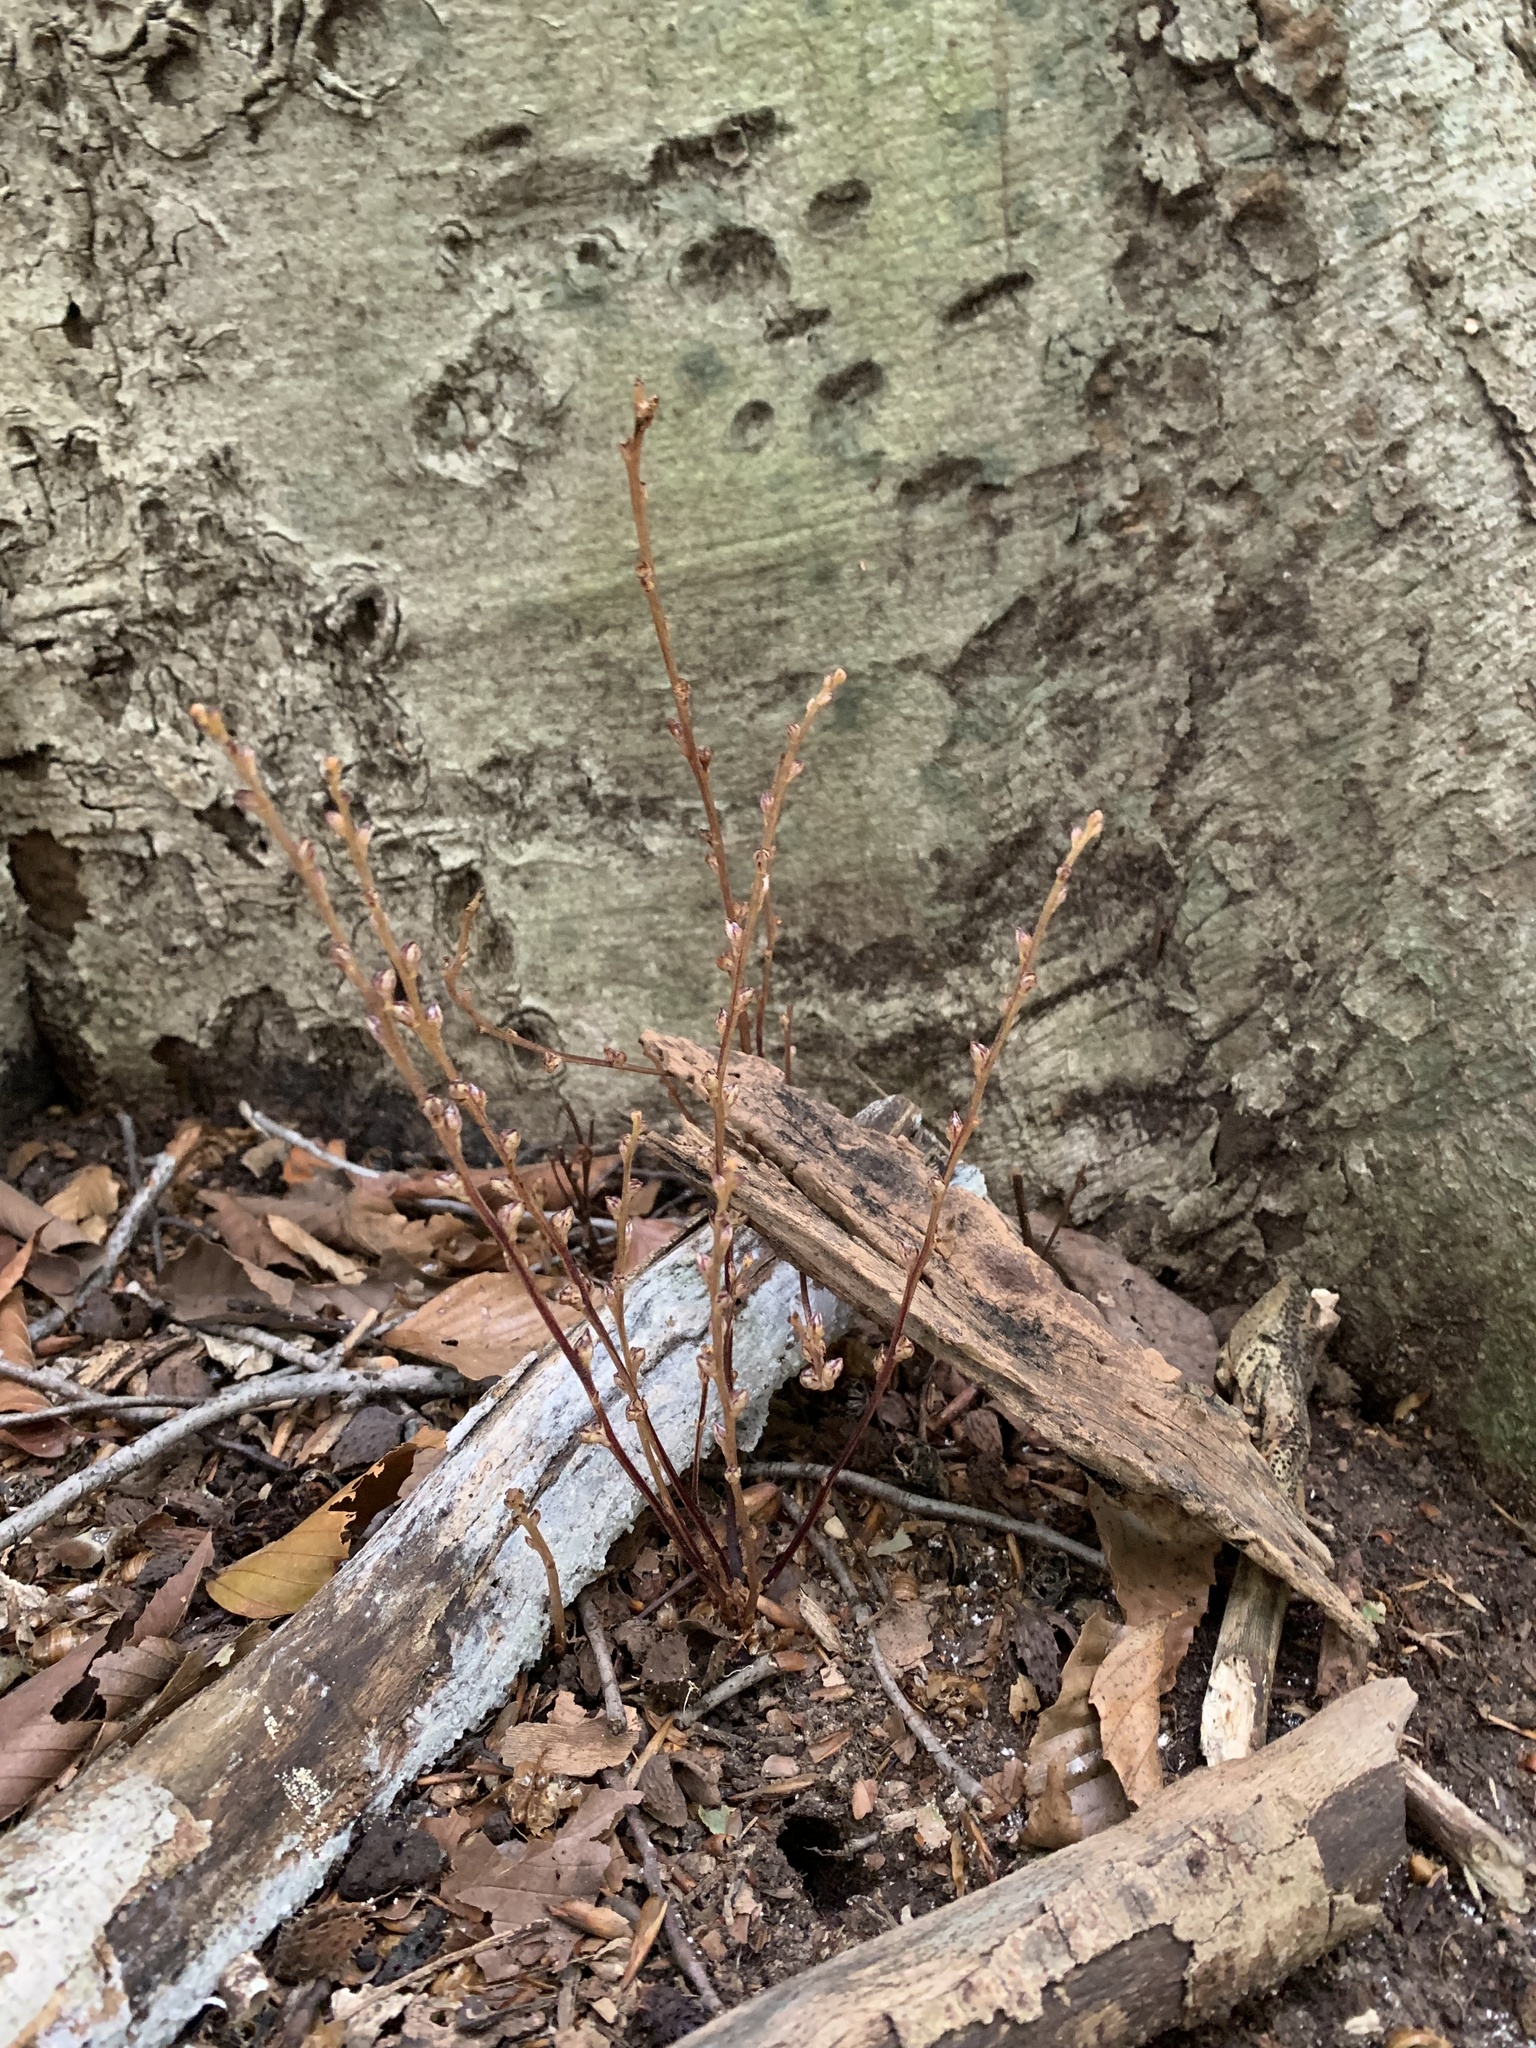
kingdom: Plantae
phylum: Tracheophyta
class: Magnoliopsida
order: Lamiales
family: Orobanchaceae
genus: Epifagus
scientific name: Epifagus virginiana
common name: Beechdrops
